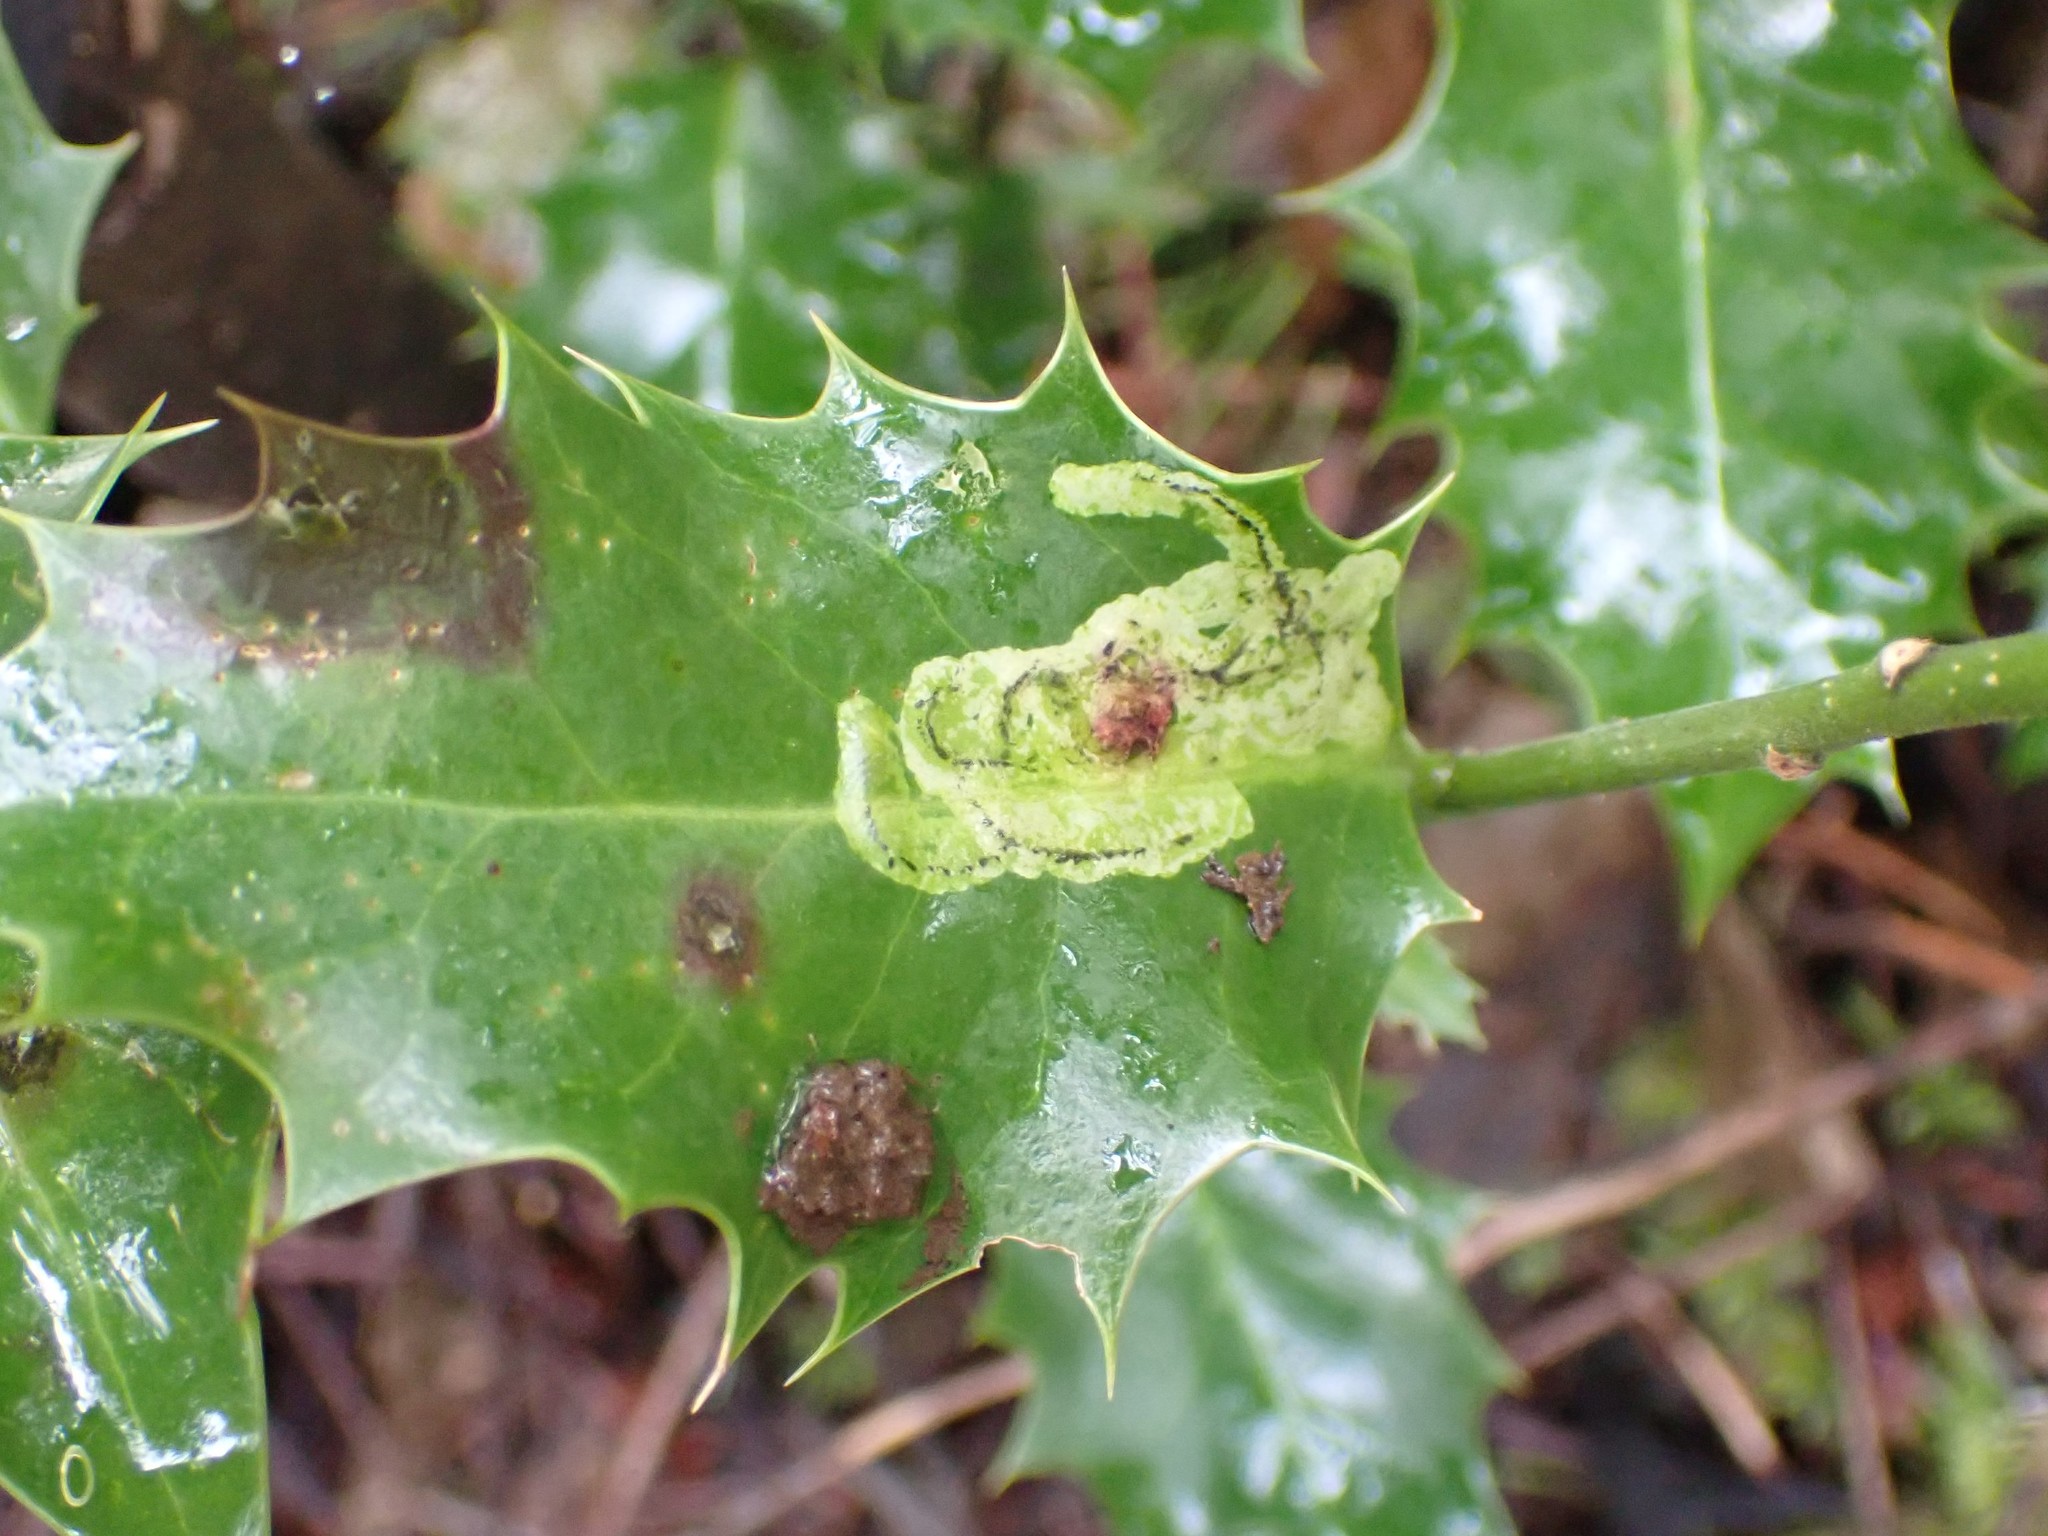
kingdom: Animalia
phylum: Arthropoda
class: Insecta
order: Diptera
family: Agromyzidae
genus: Phytomyza
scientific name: Phytomyza ilicis
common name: Holly leafminer
